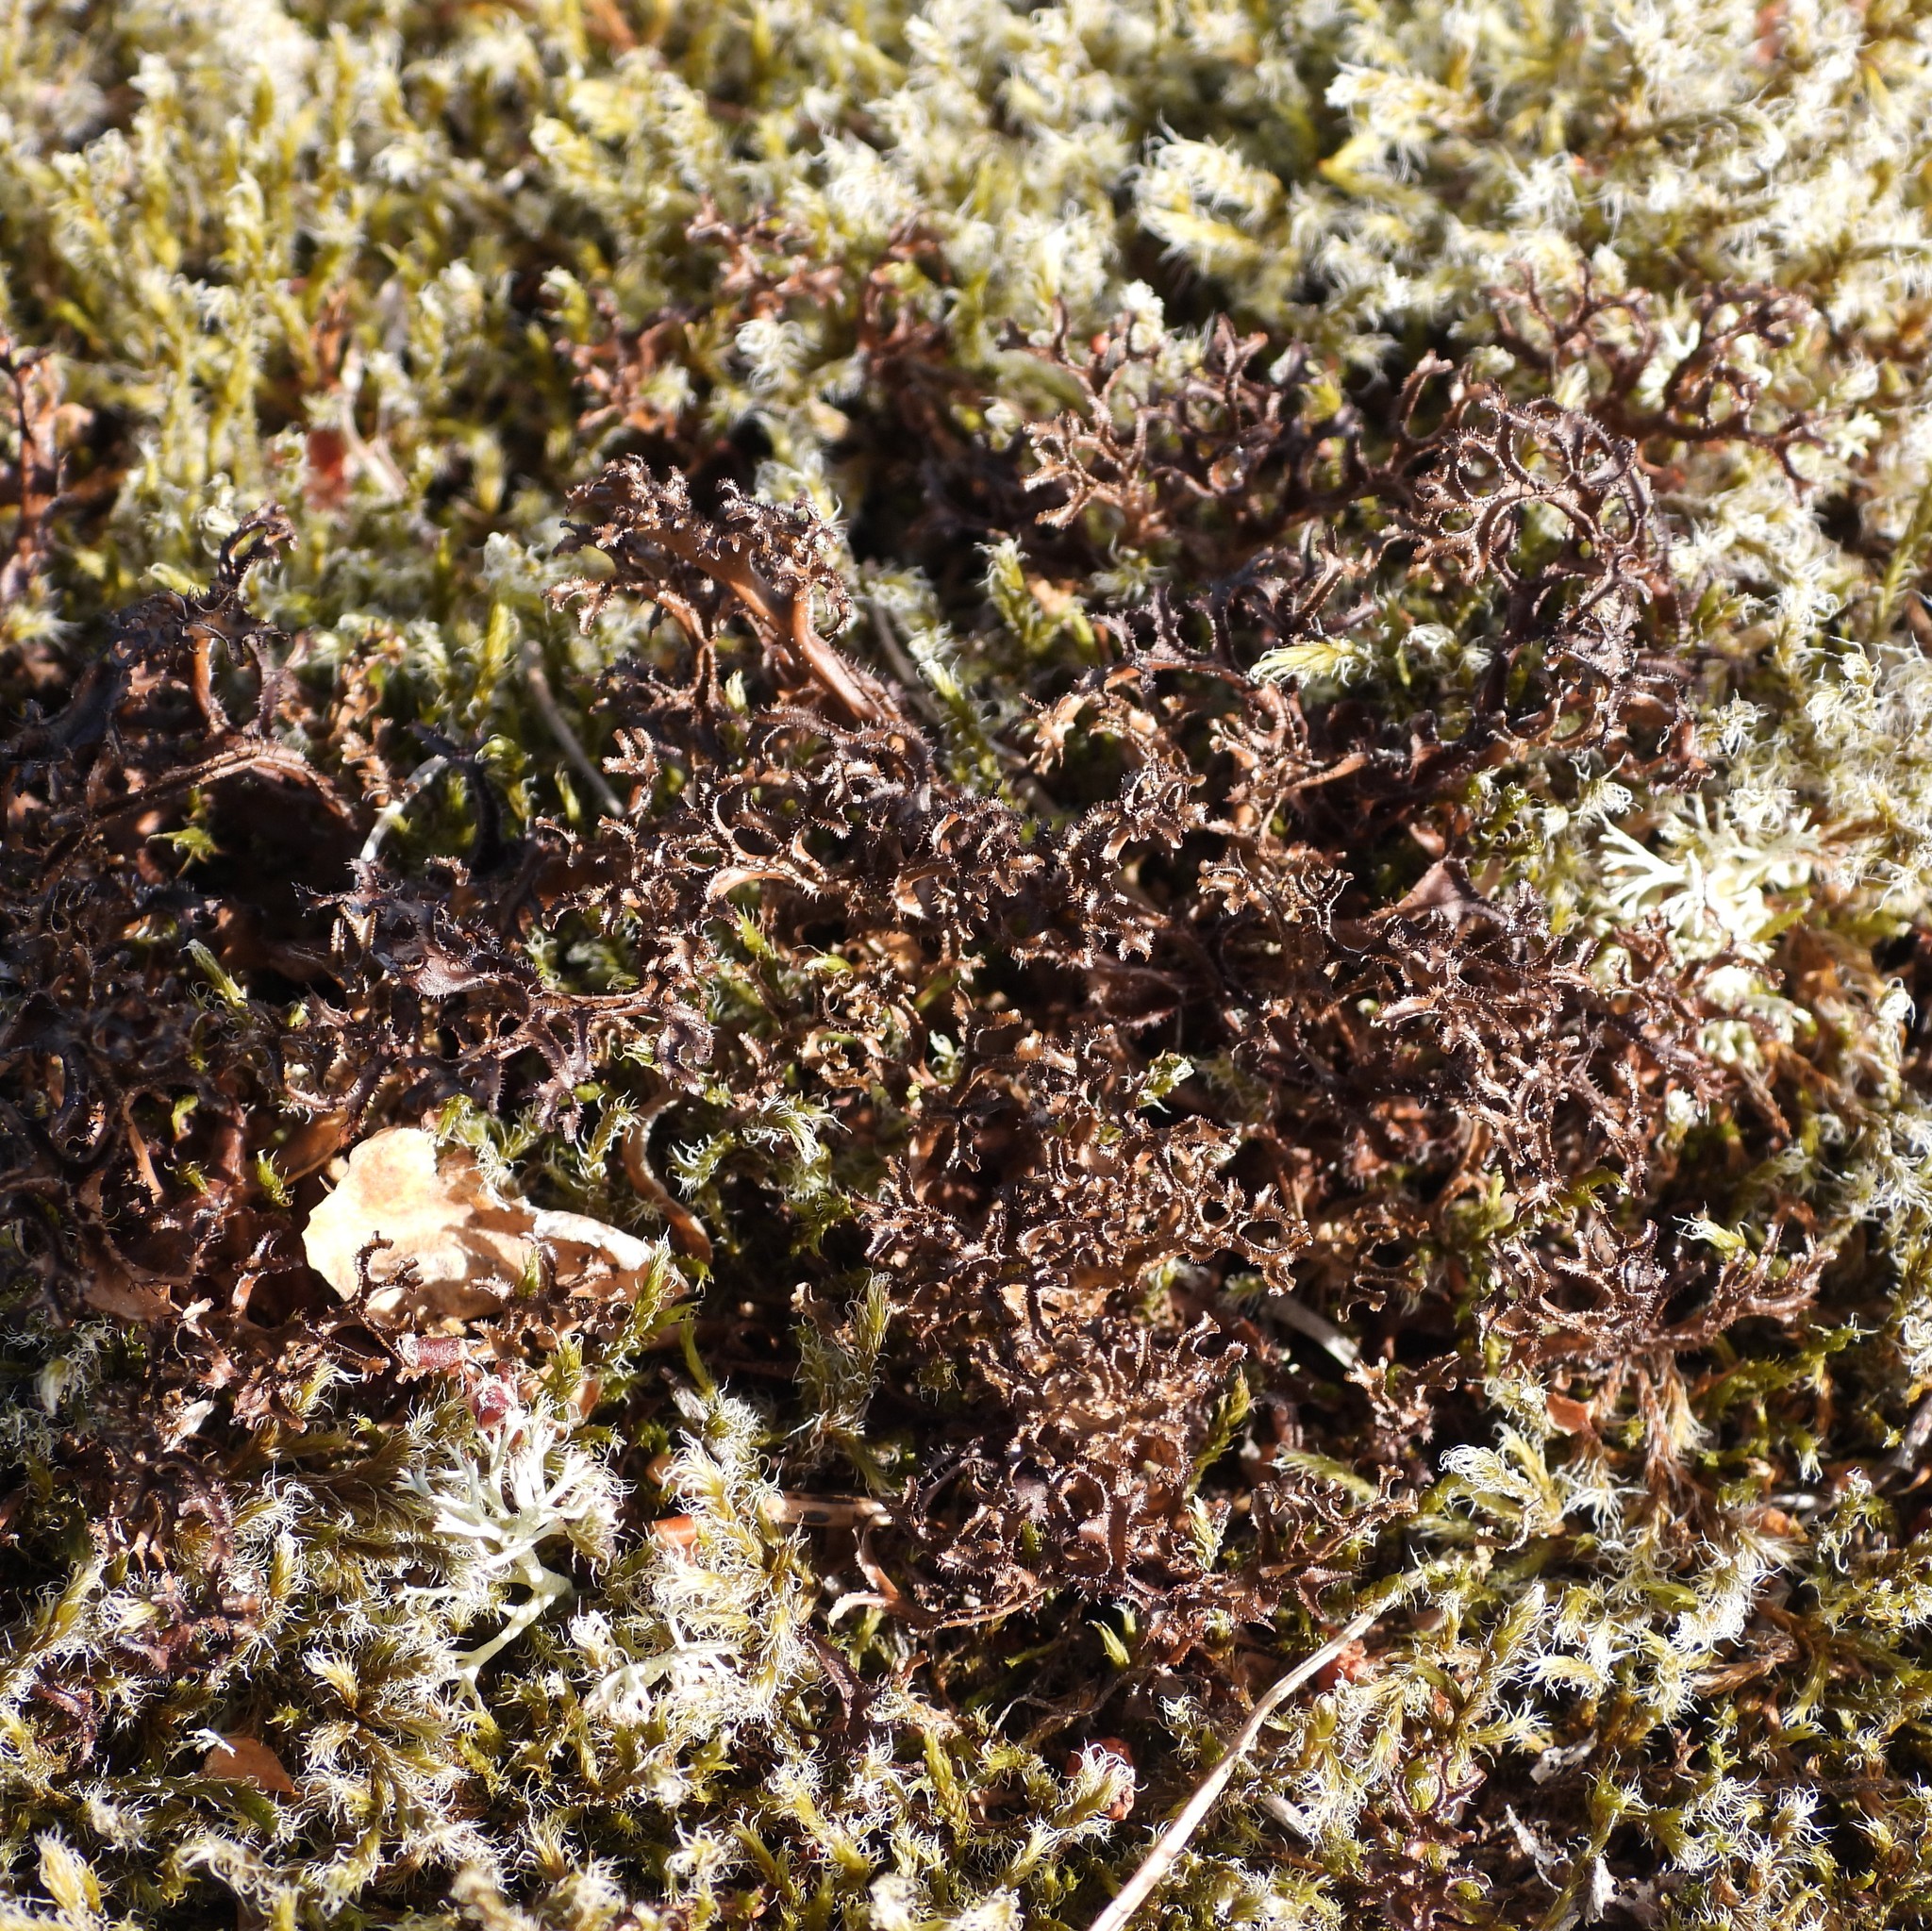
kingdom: Fungi
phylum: Ascomycota
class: Lecanoromycetes
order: Lecanorales
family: Parmeliaceae
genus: Cetraria
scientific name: Cetraria ericetorum
